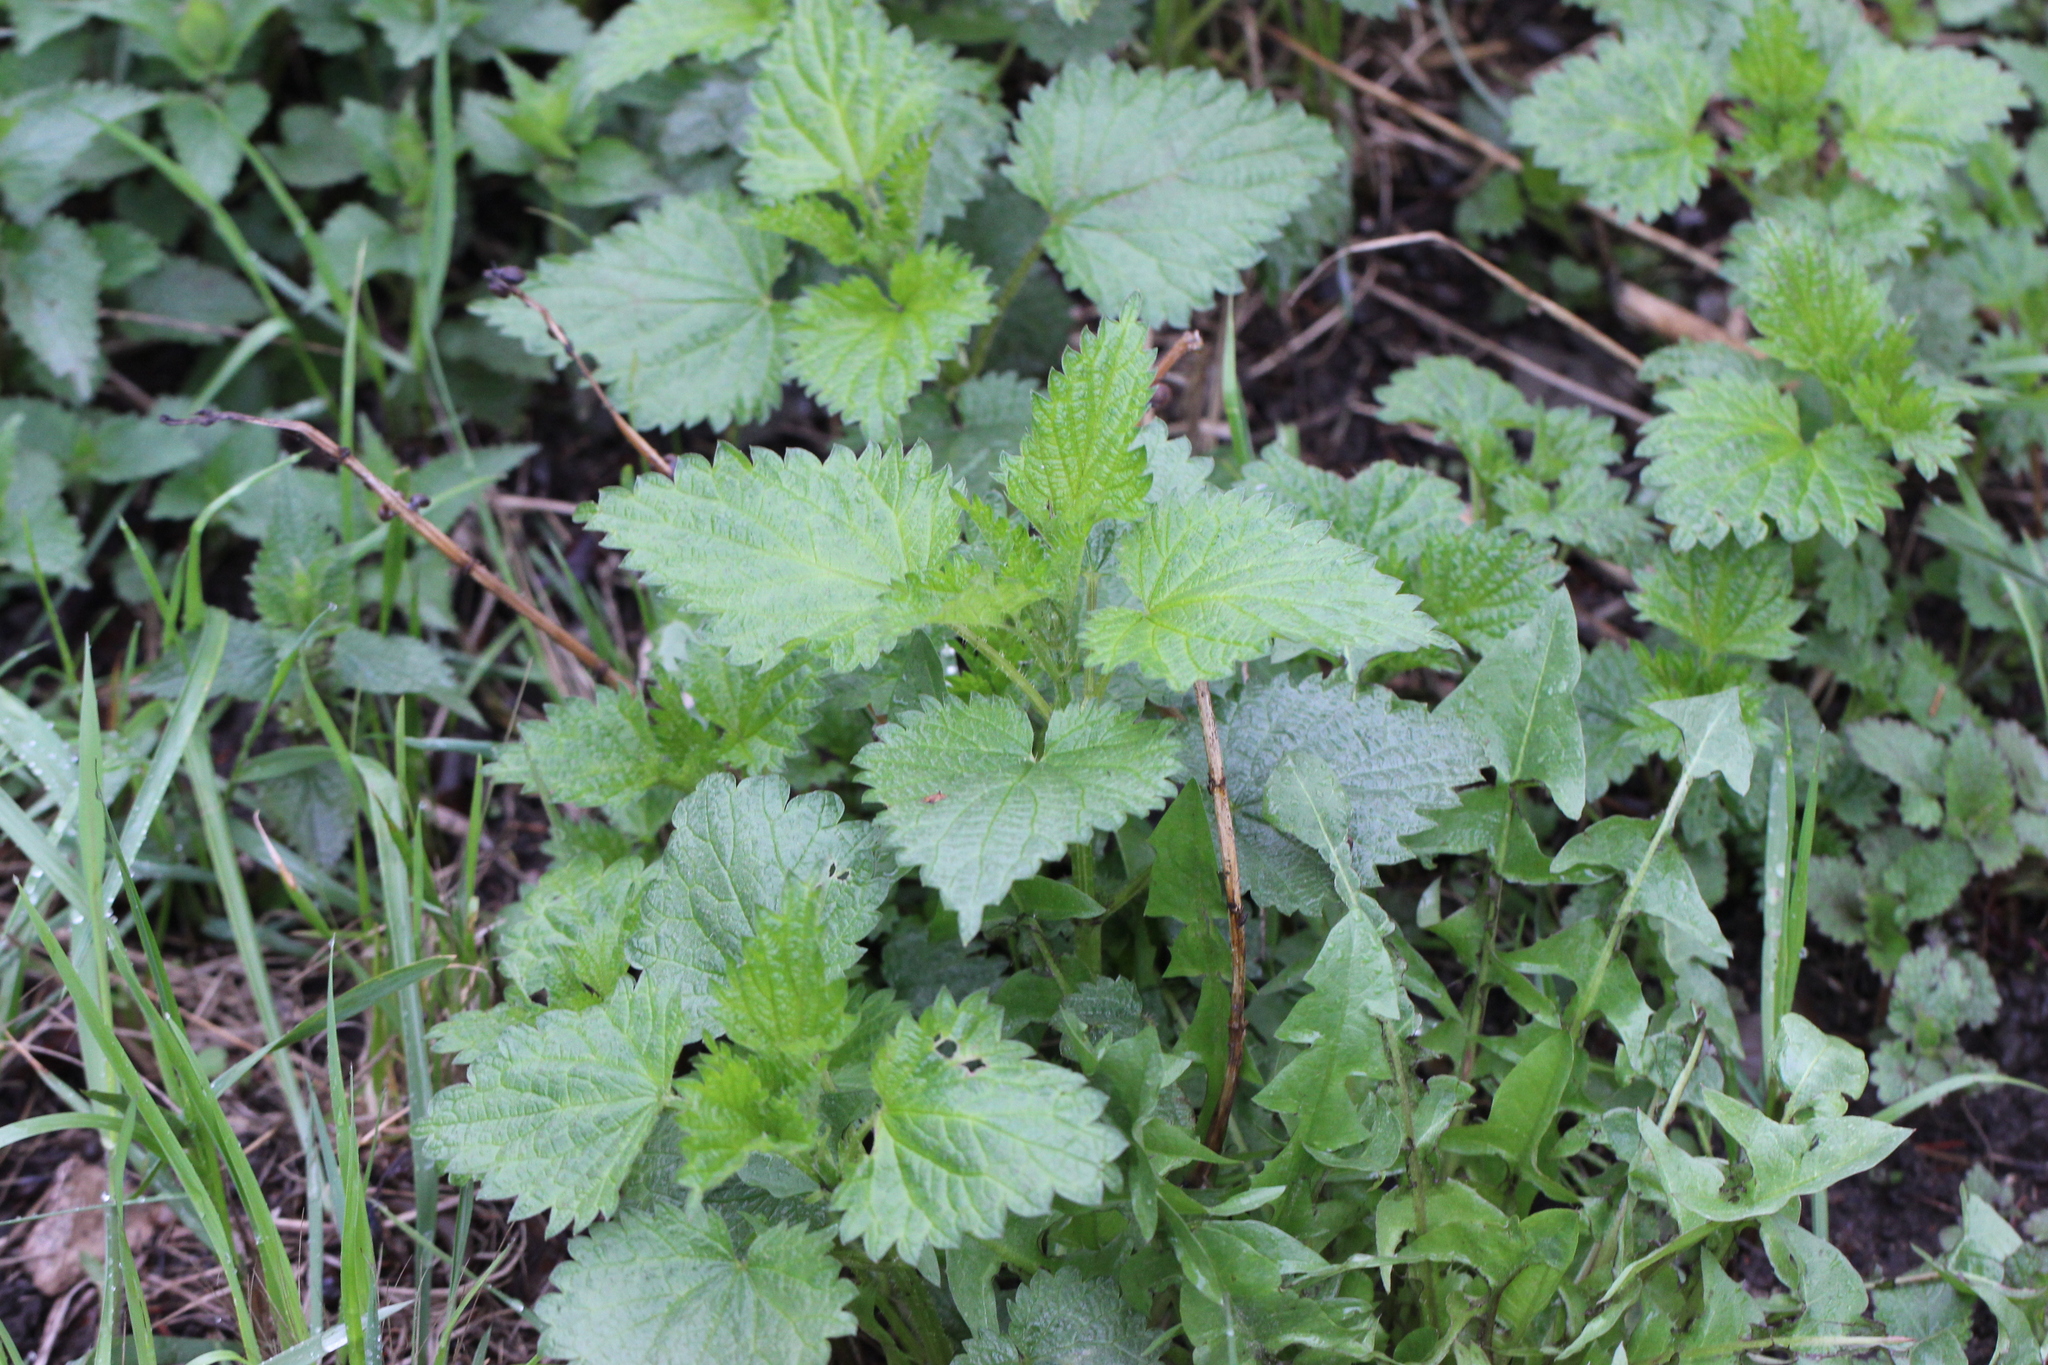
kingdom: Plantae
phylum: Tracheophyta
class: Magnoliopsida
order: Rosales
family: Urticaceae
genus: Urtica
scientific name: Urtica dioica
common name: Common nettle
